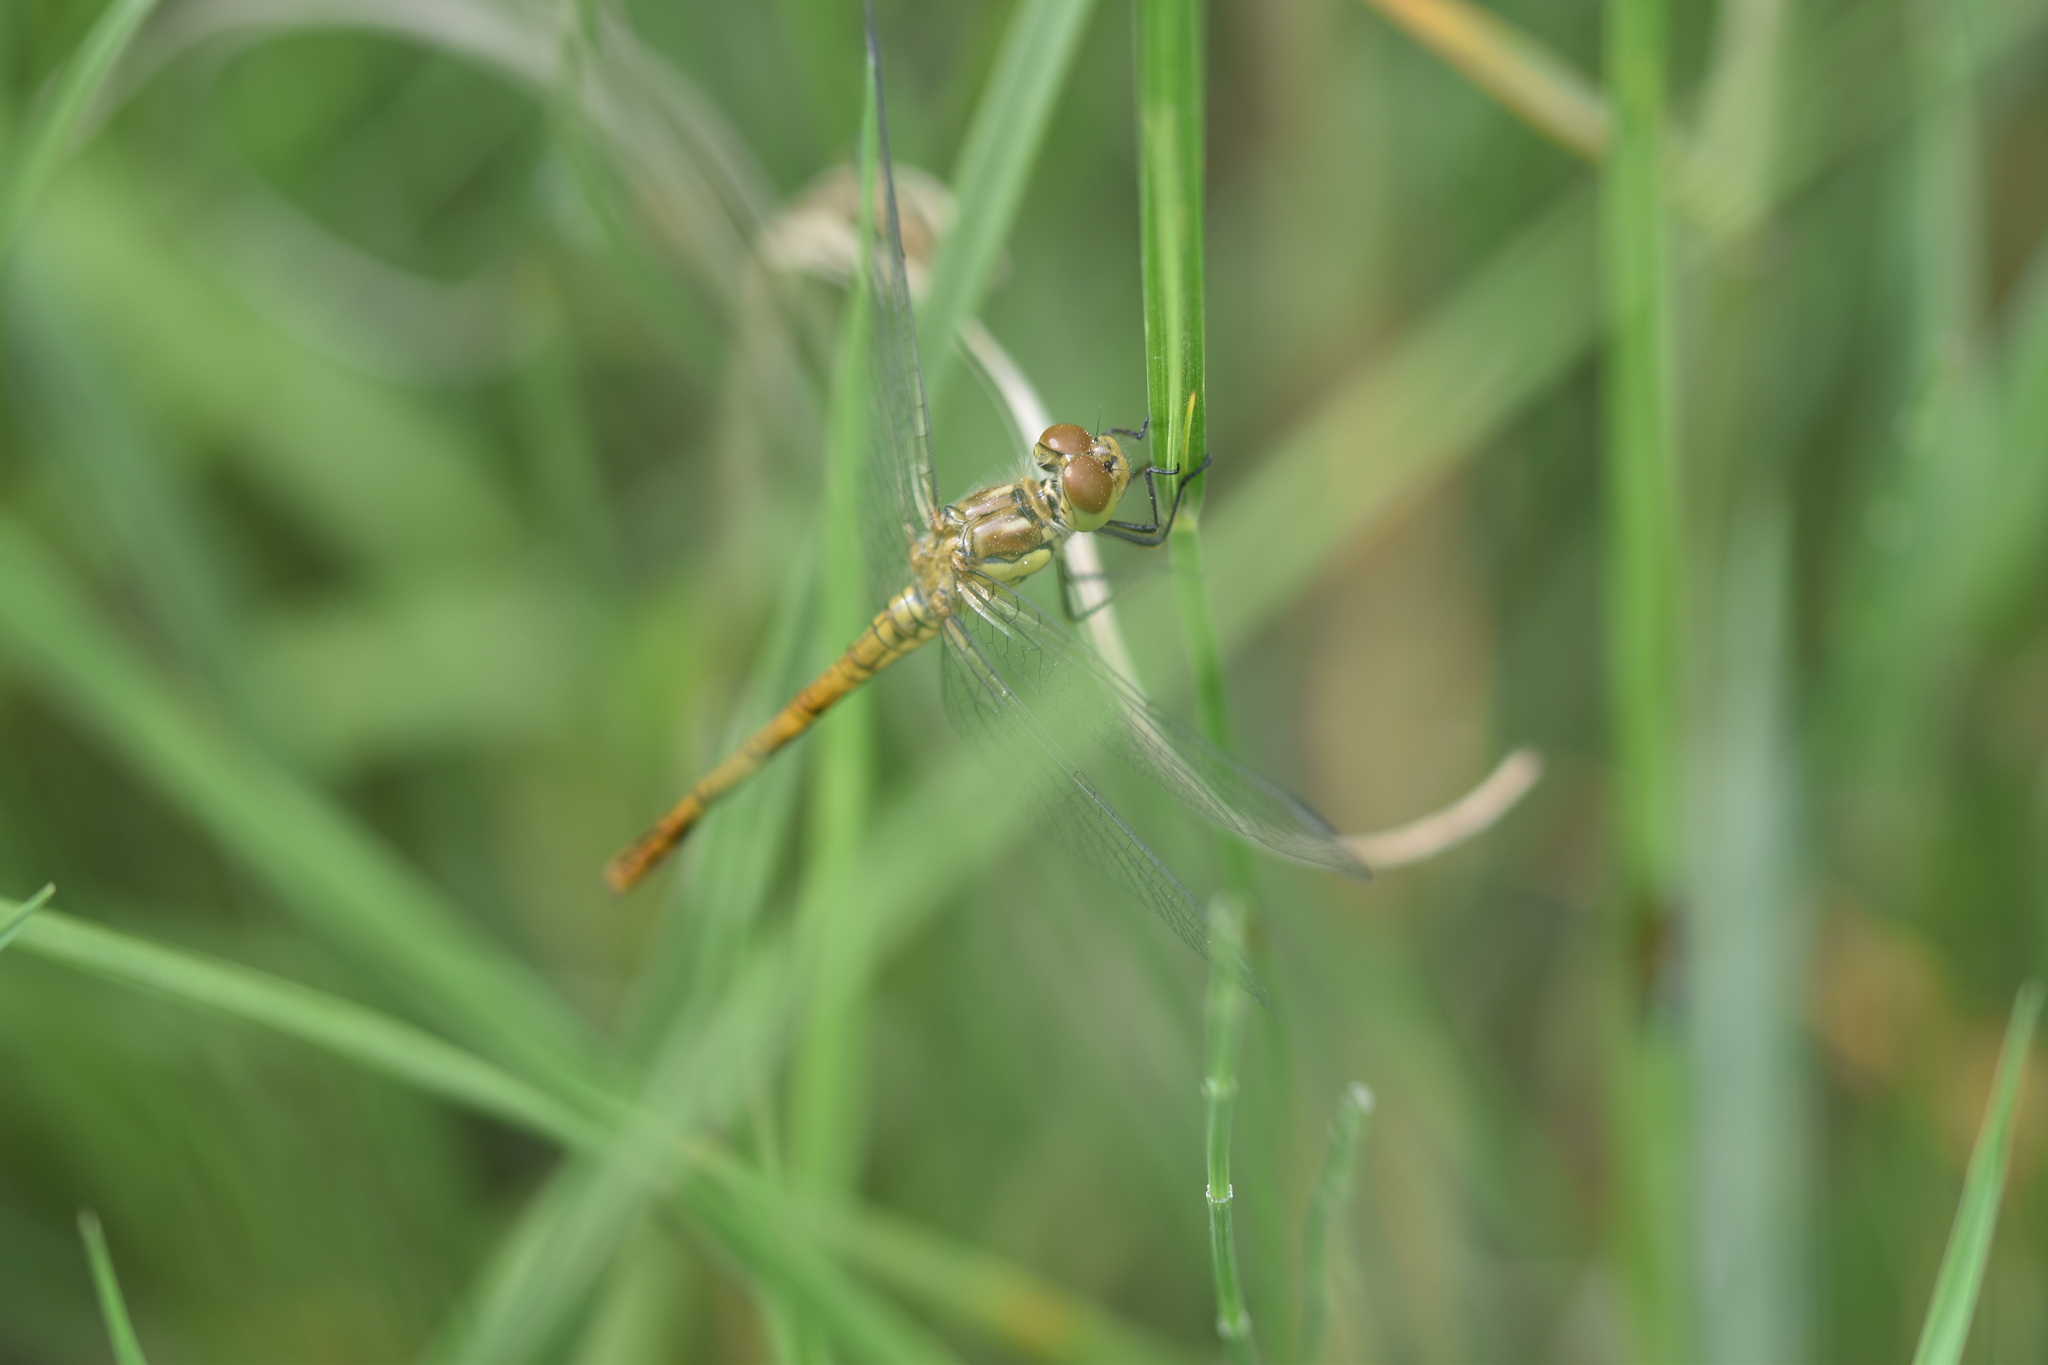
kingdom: Animalia
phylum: Arthropoda
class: Insecta
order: Odonata
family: Libellulidae
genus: Sympetrum
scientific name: Sympetrum striolatum
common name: Common darter
